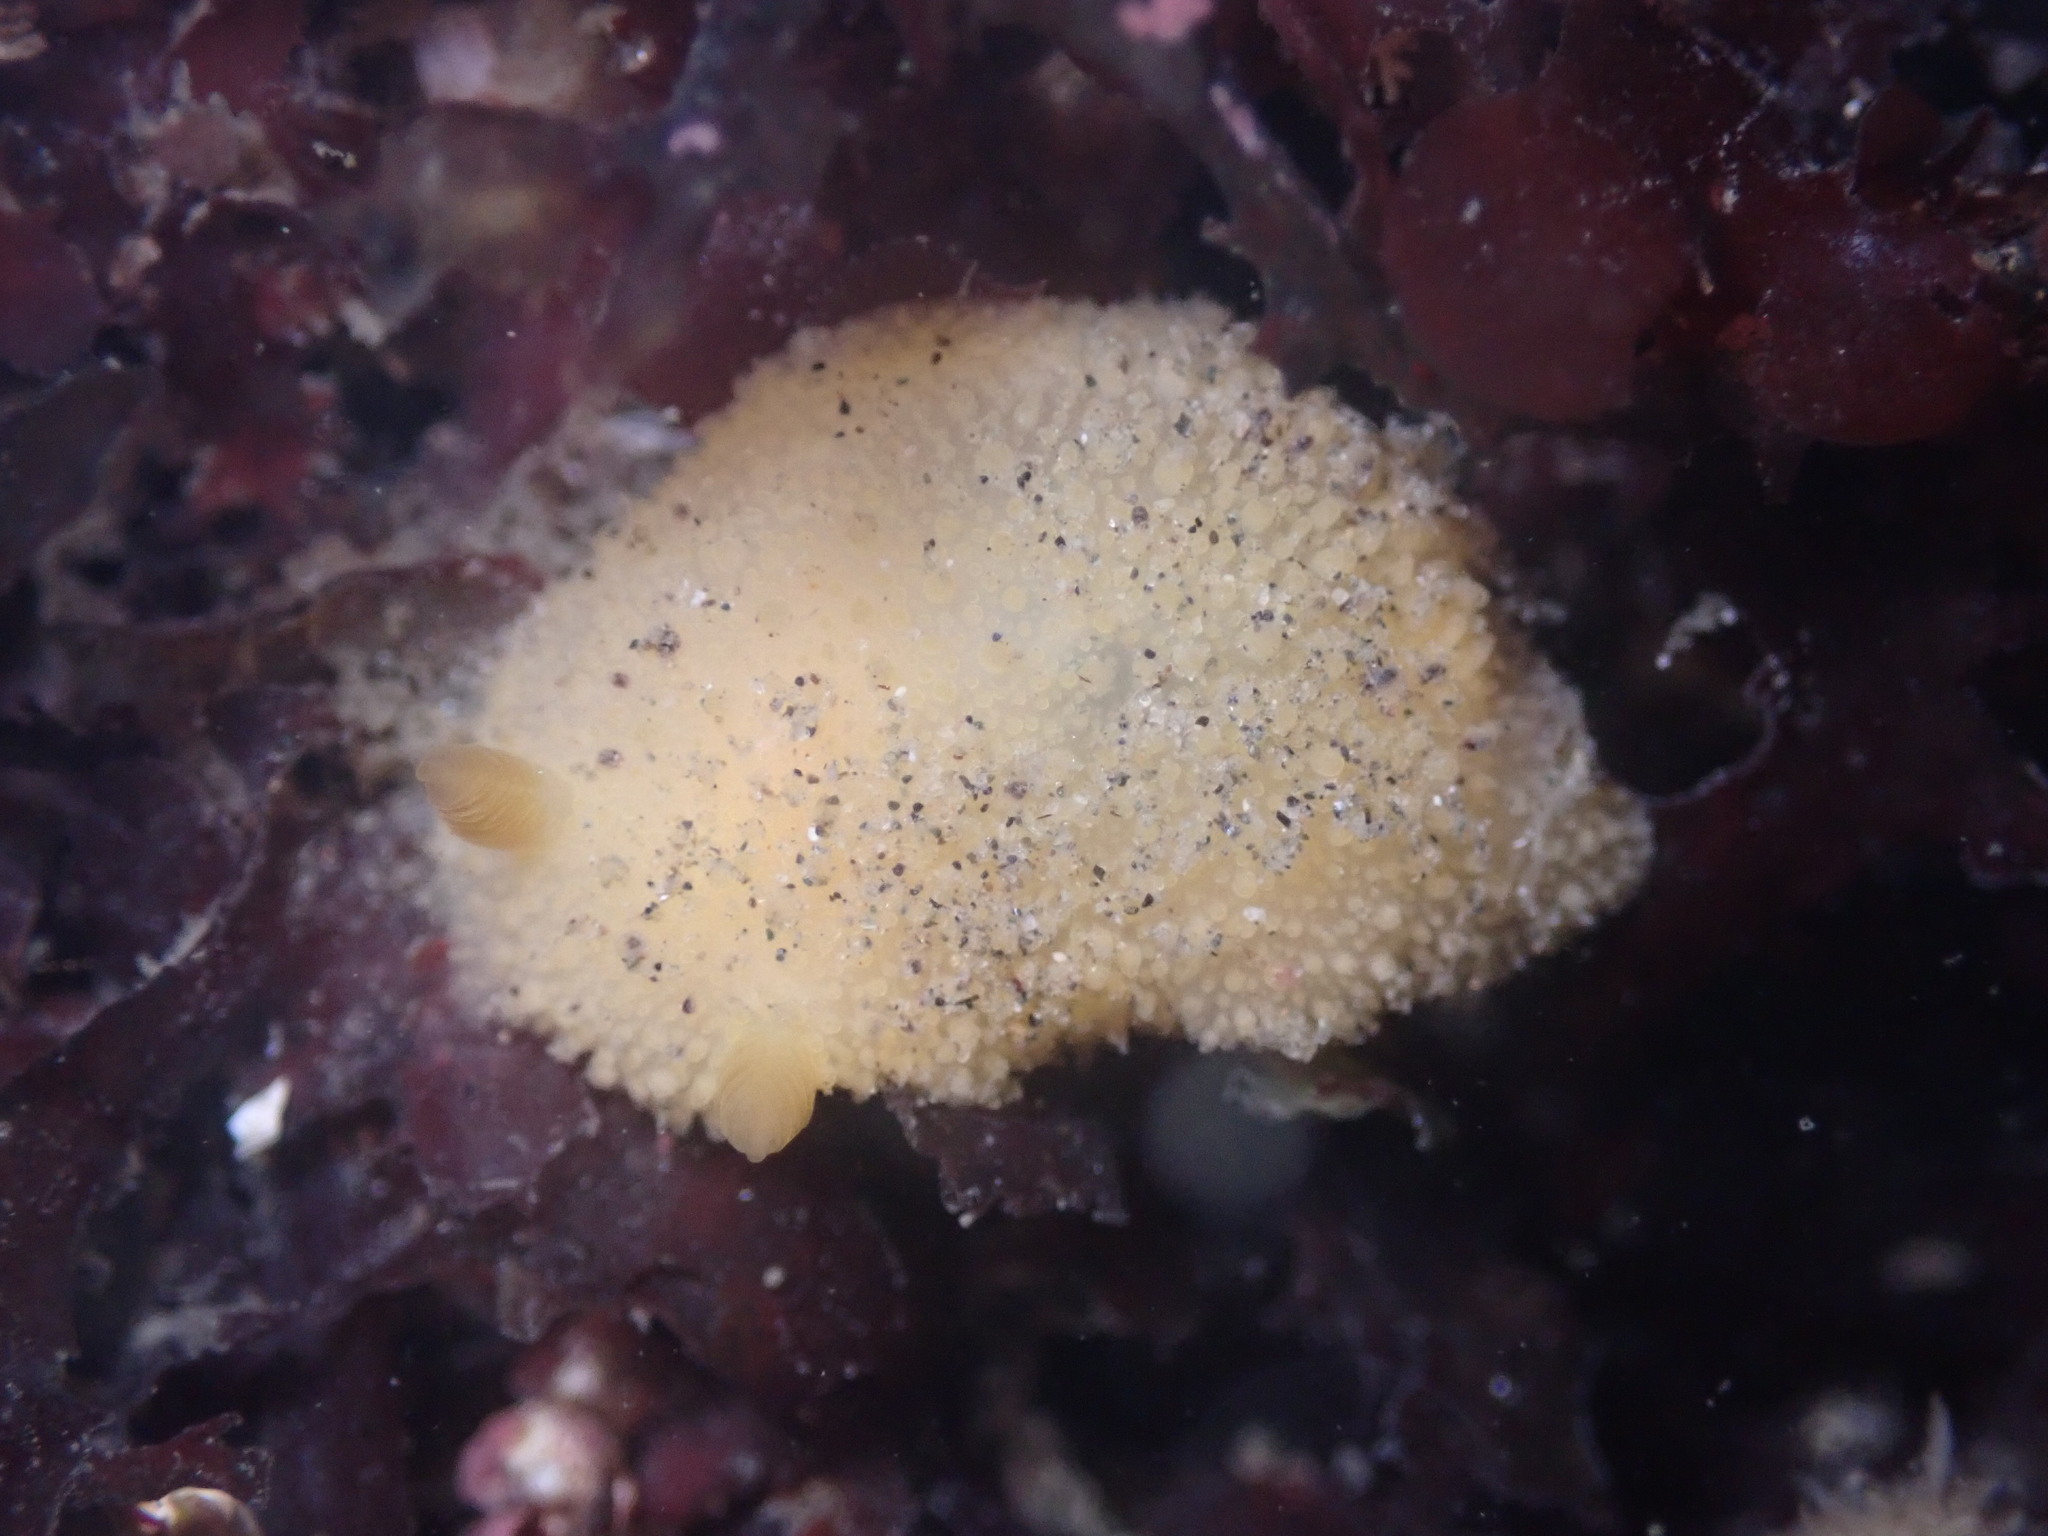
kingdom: Animalia
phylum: Mollusca
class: Gastropoda
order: Nudibranchia
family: Dorididae
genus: Doris
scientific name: Doris montereyensis
